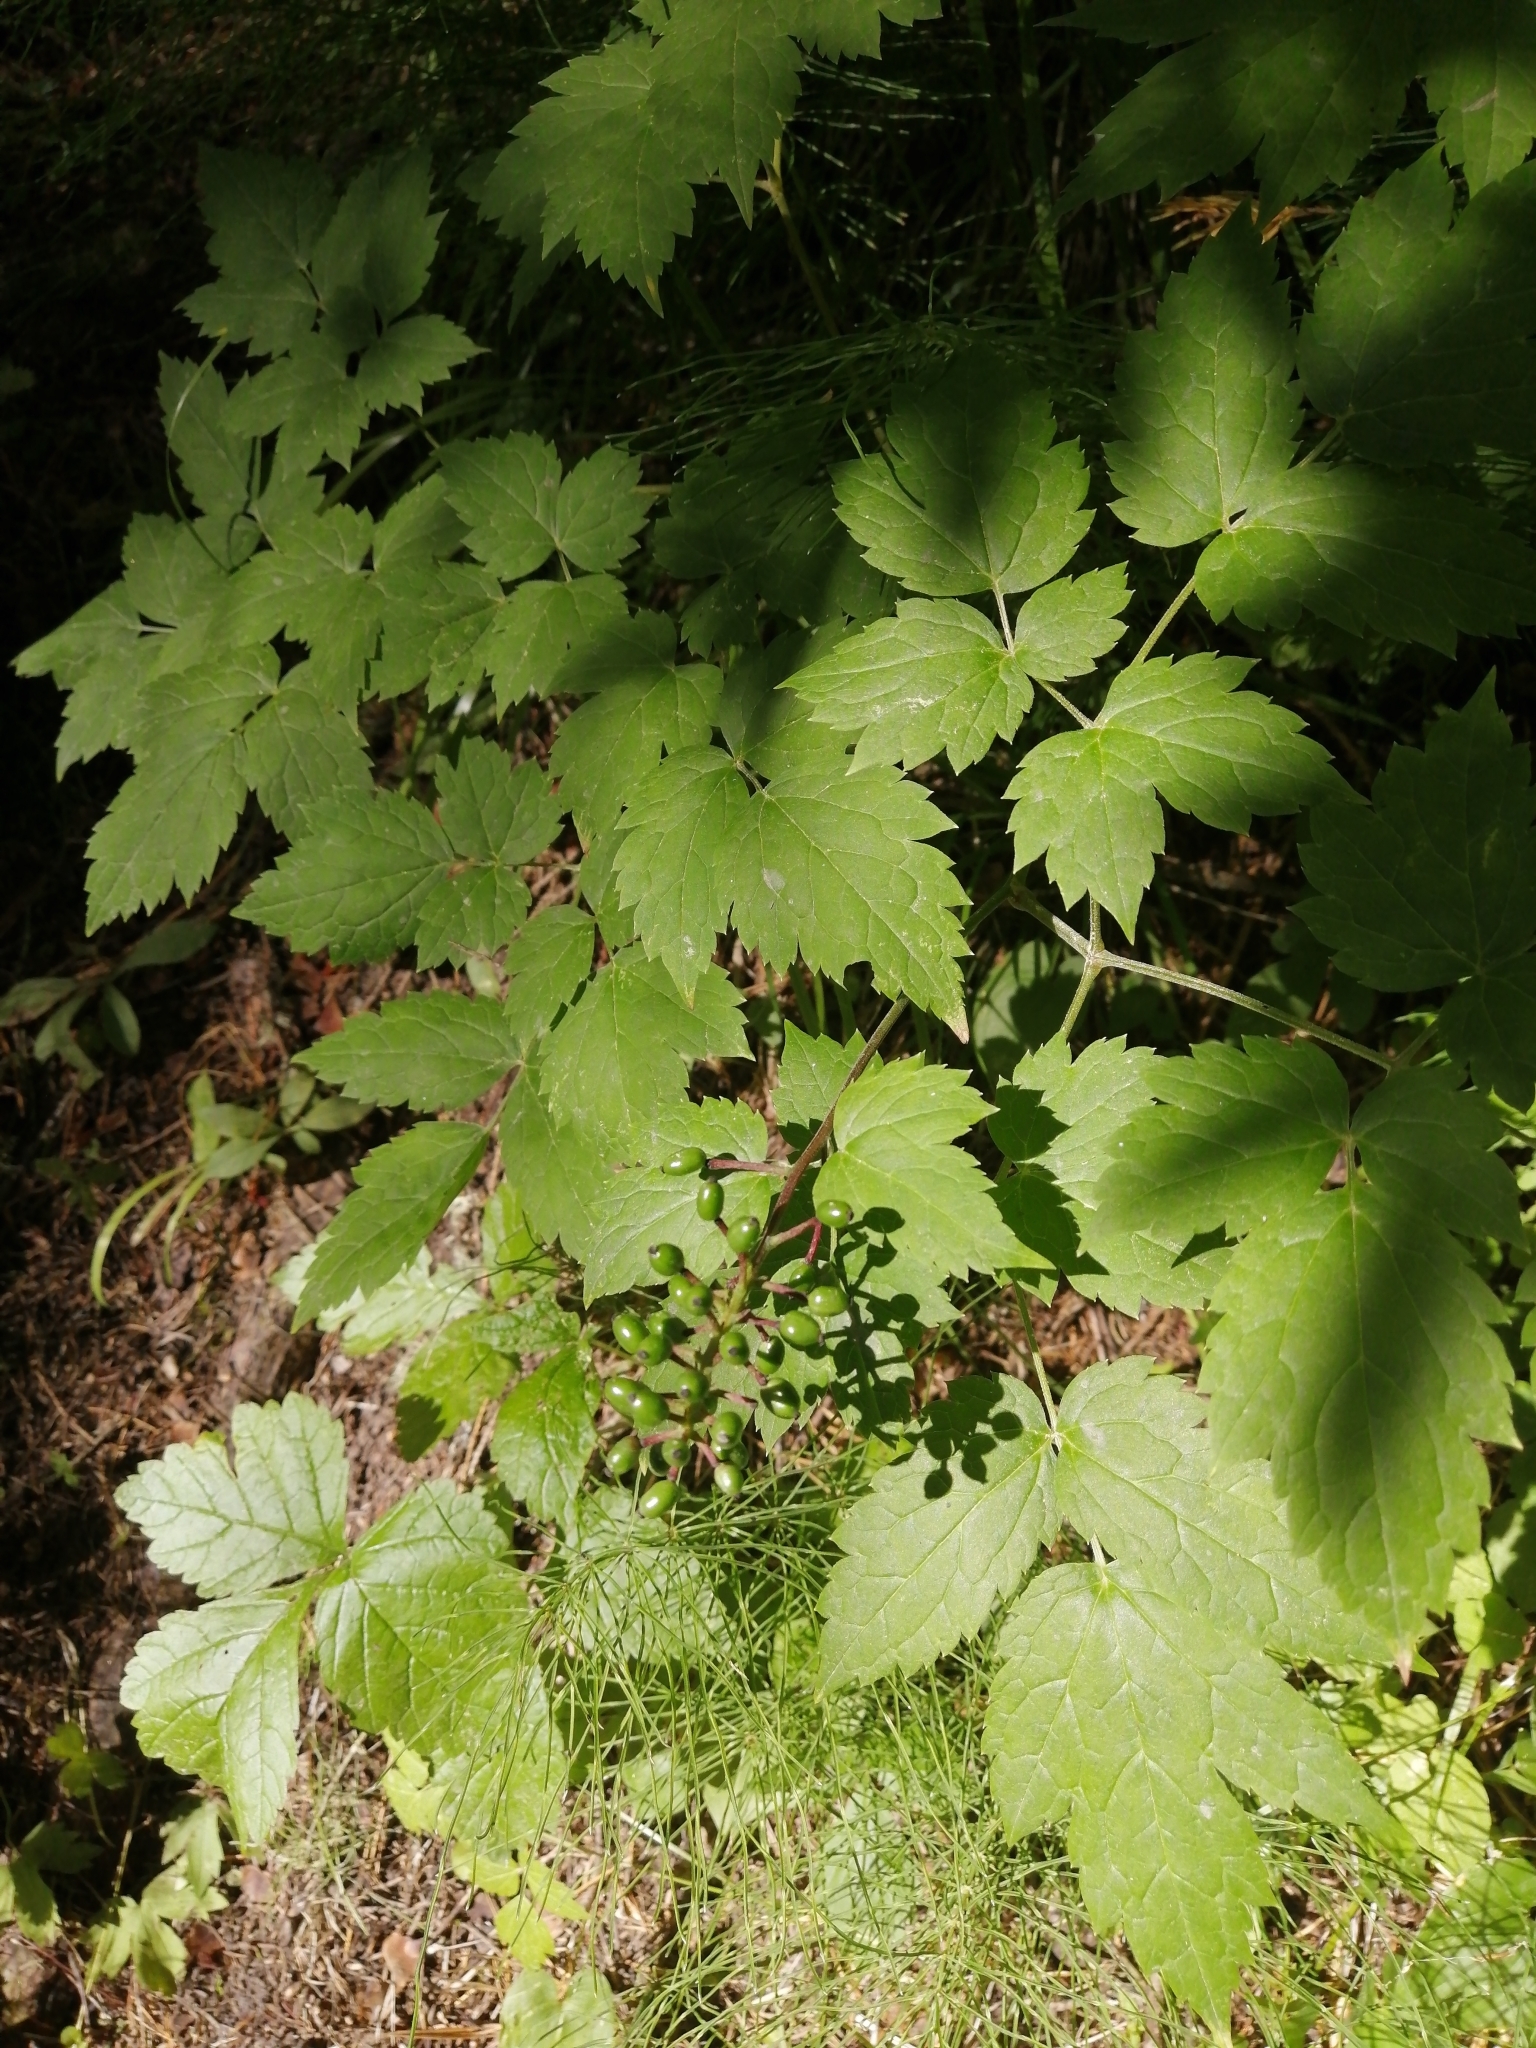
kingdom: Plantae
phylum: Tracheophyta
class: Magnoliopsida
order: Ranunculales
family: Ranunculaceae
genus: Actaea
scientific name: Actaea spicata
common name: Baneberry
